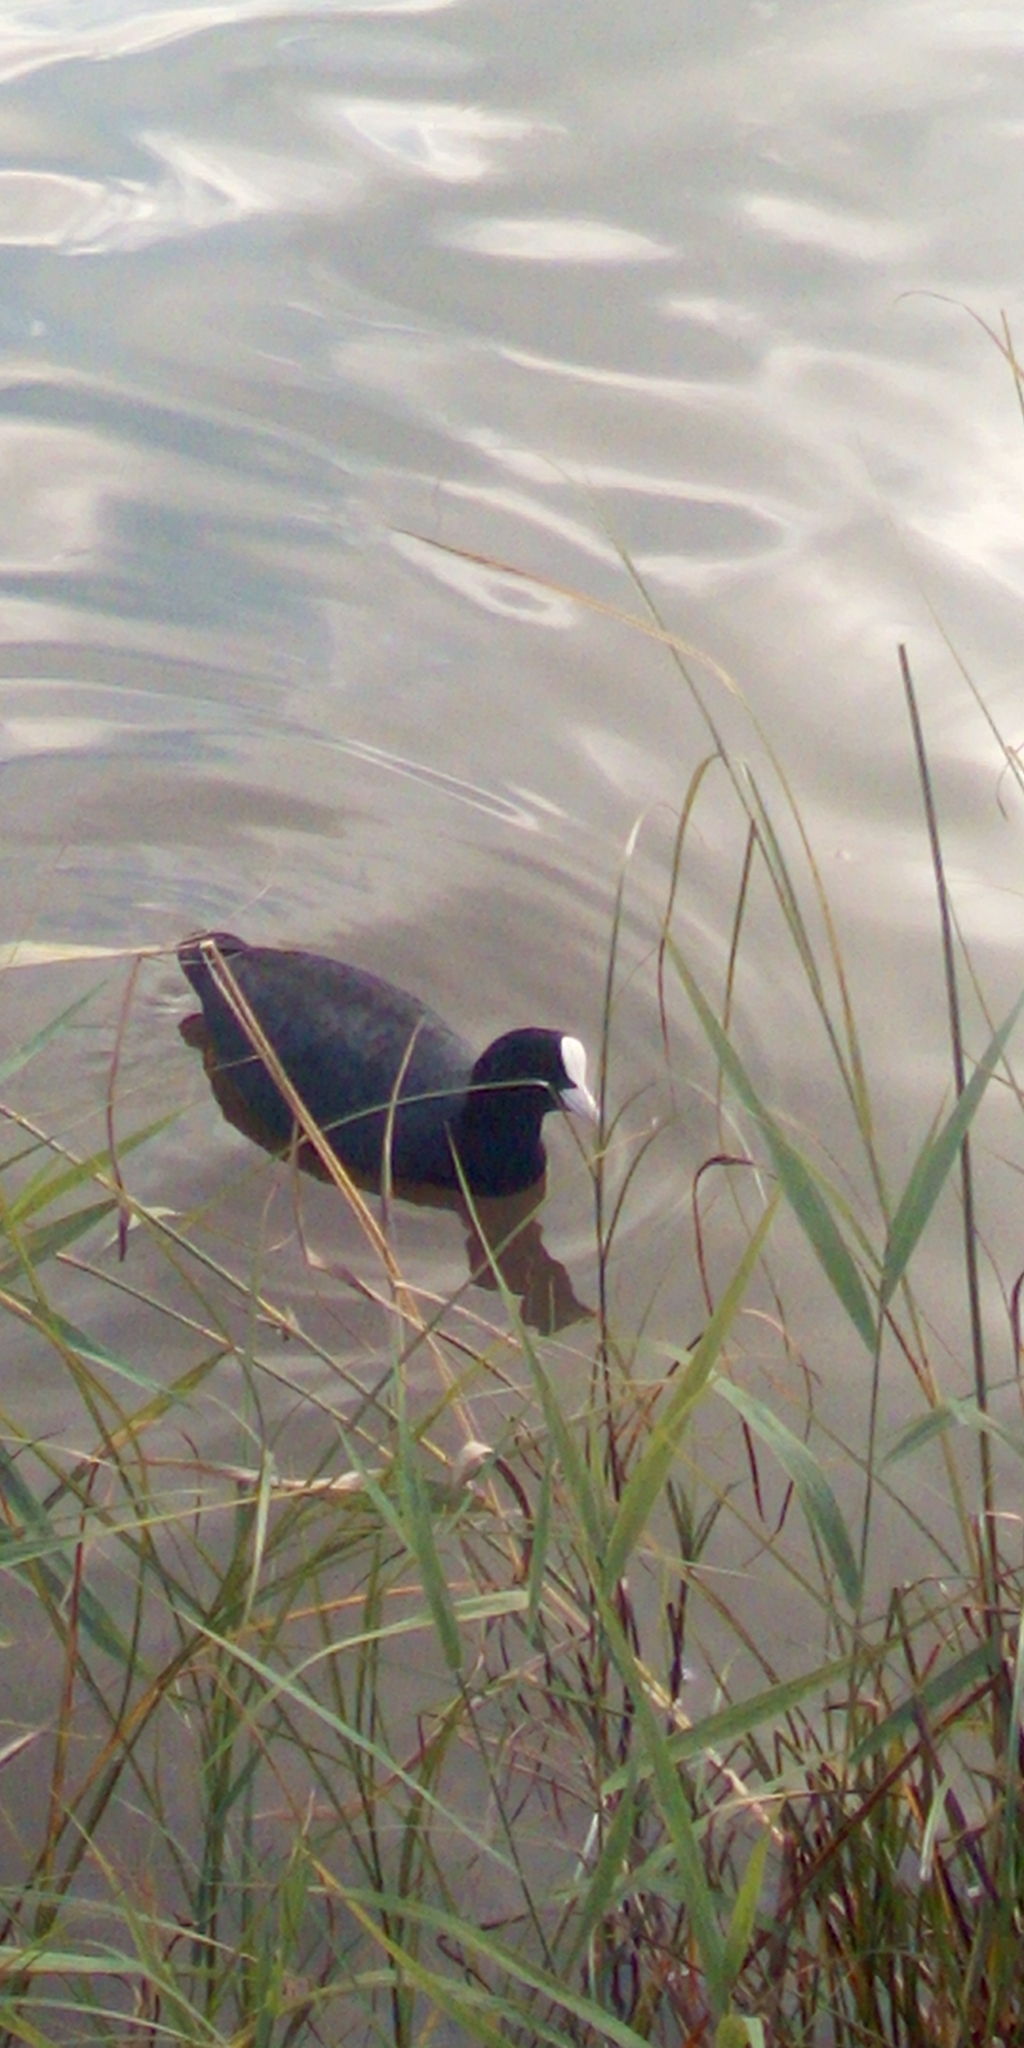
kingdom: Animalia
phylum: Chordata
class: Aves
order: Gruiformes
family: Rallidae
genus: Fulica
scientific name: Fulica atra
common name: Eurasian coot
